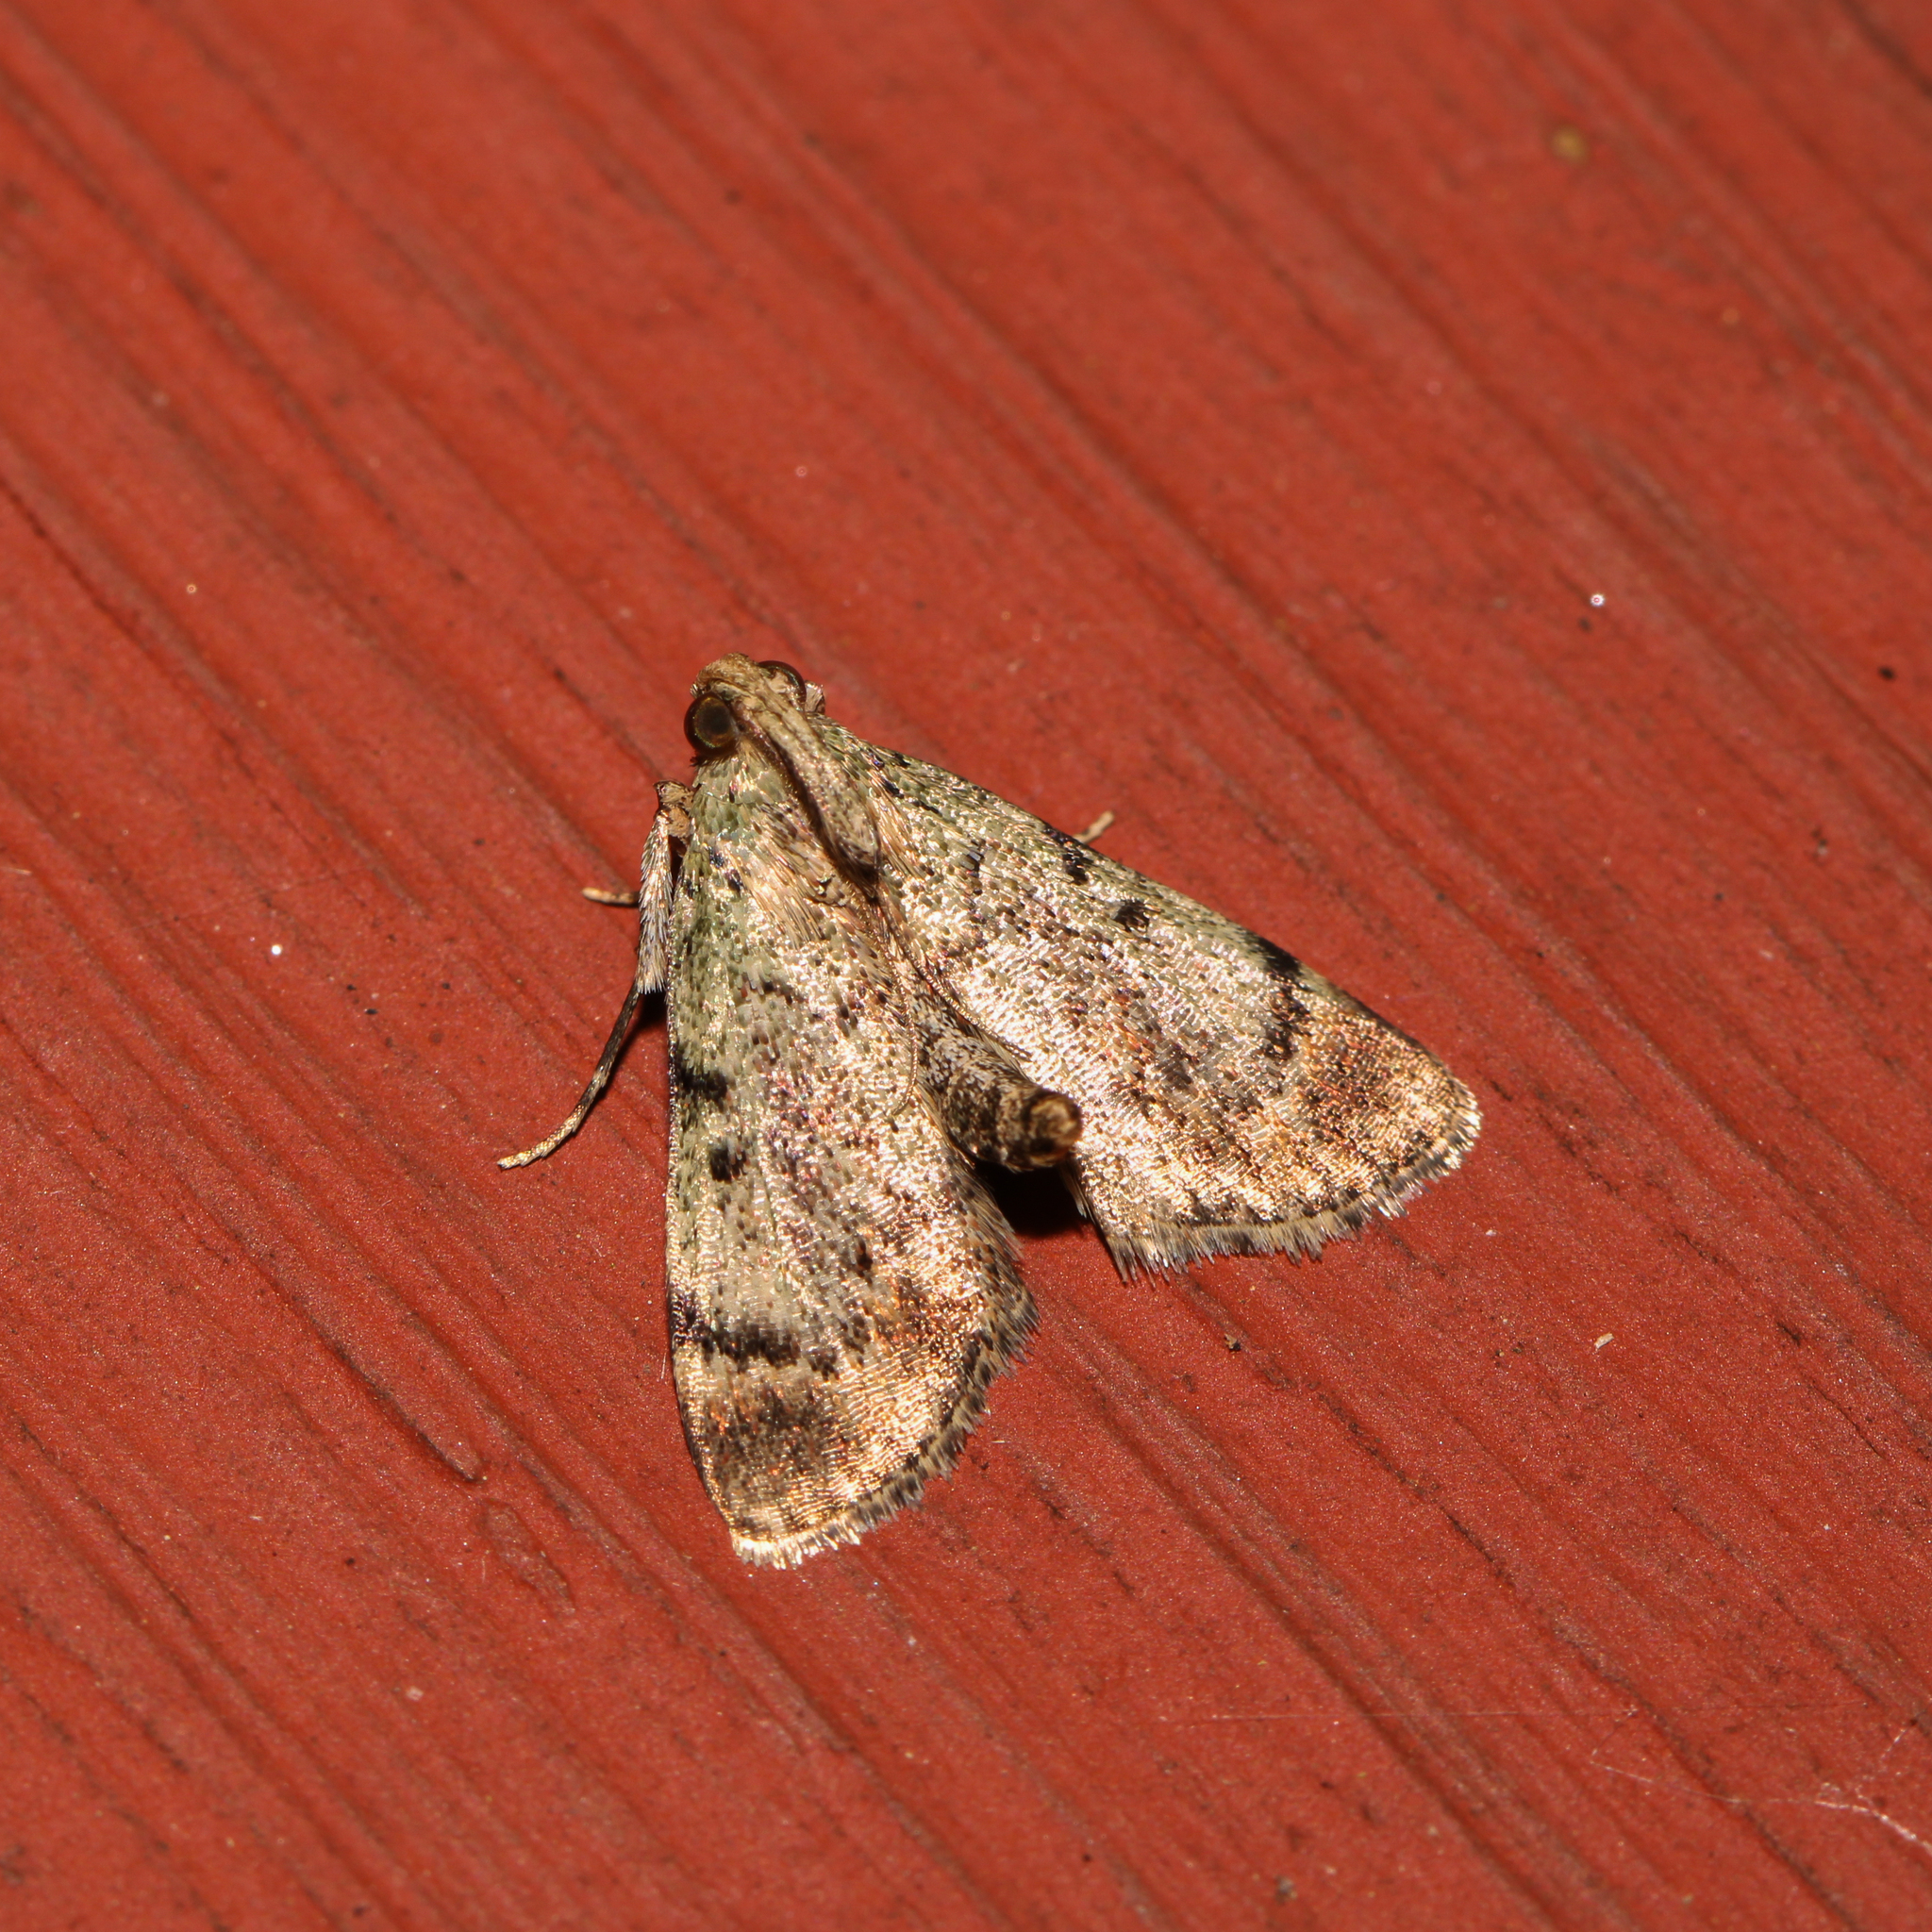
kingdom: Animalia
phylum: Arthropoda
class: Insecta
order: Lepidoptera
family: Pyralidae
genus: Epipaschia
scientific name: Epipaschia superatalis
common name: Dimorphic macalla moth
